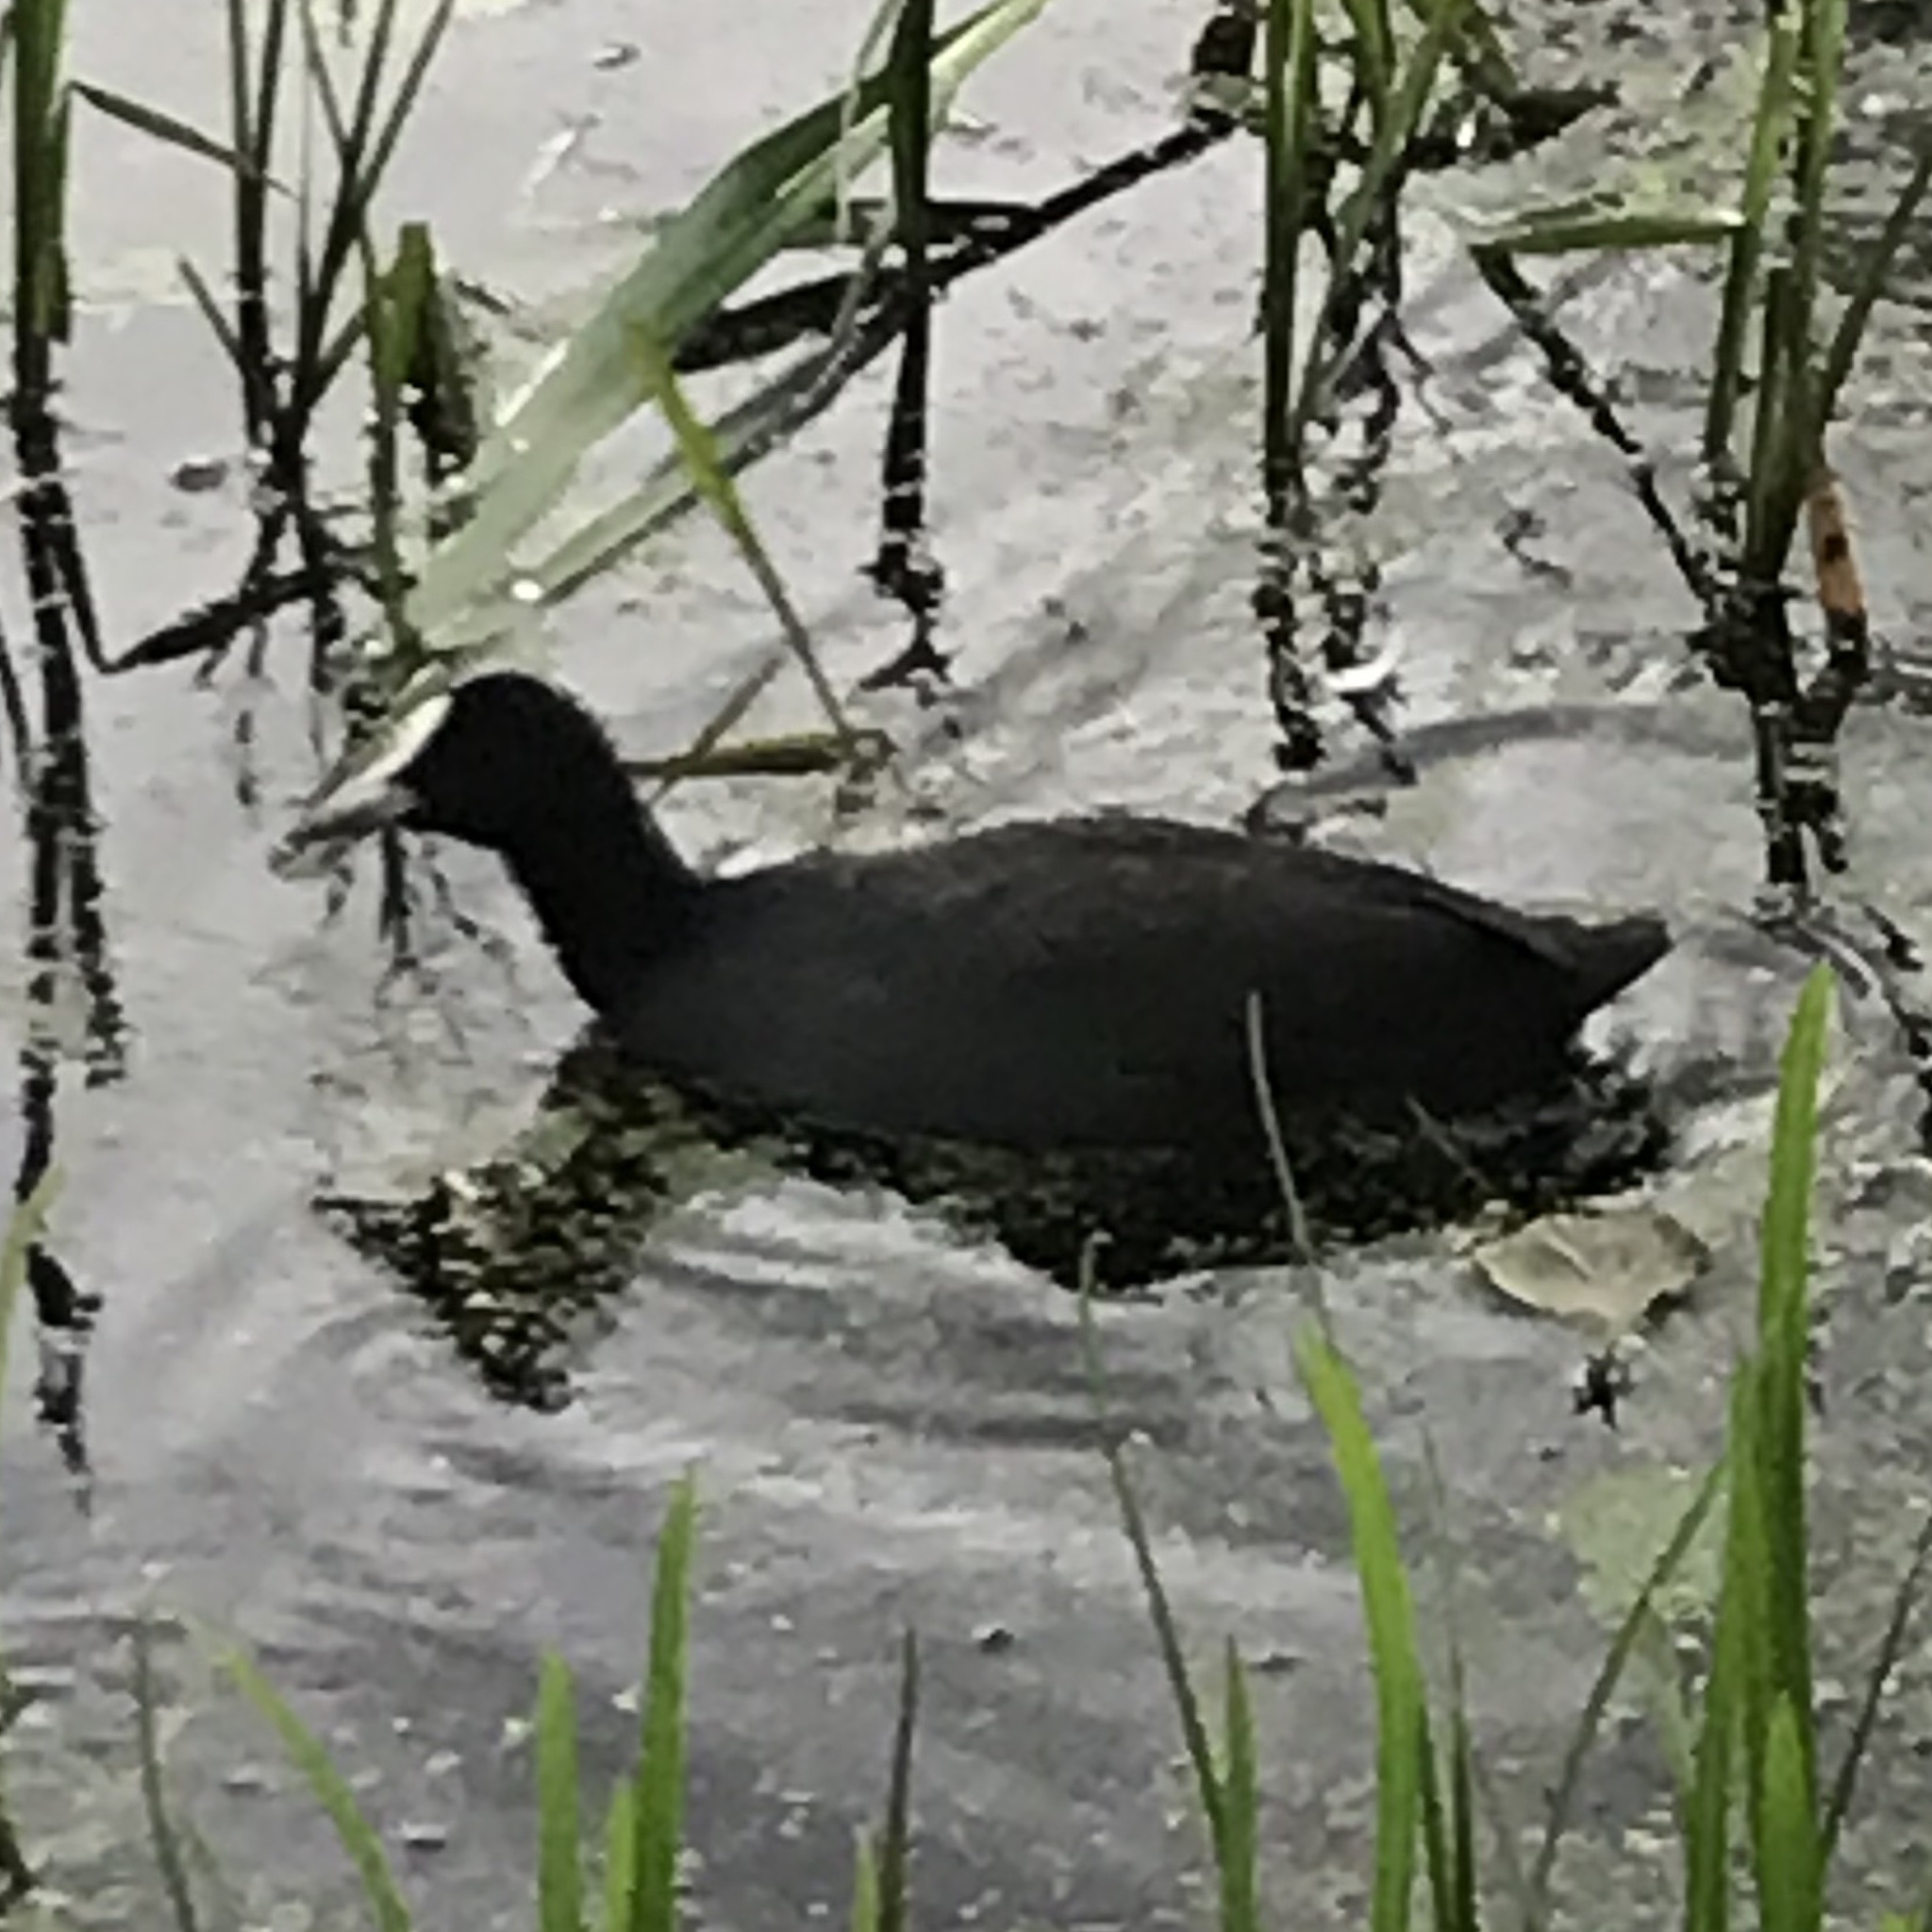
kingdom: Animalia
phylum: Chordata
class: Aves
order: Gruiformes
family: Rallidae
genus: Fulica
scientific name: Fulica atra
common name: Eurasian coot
